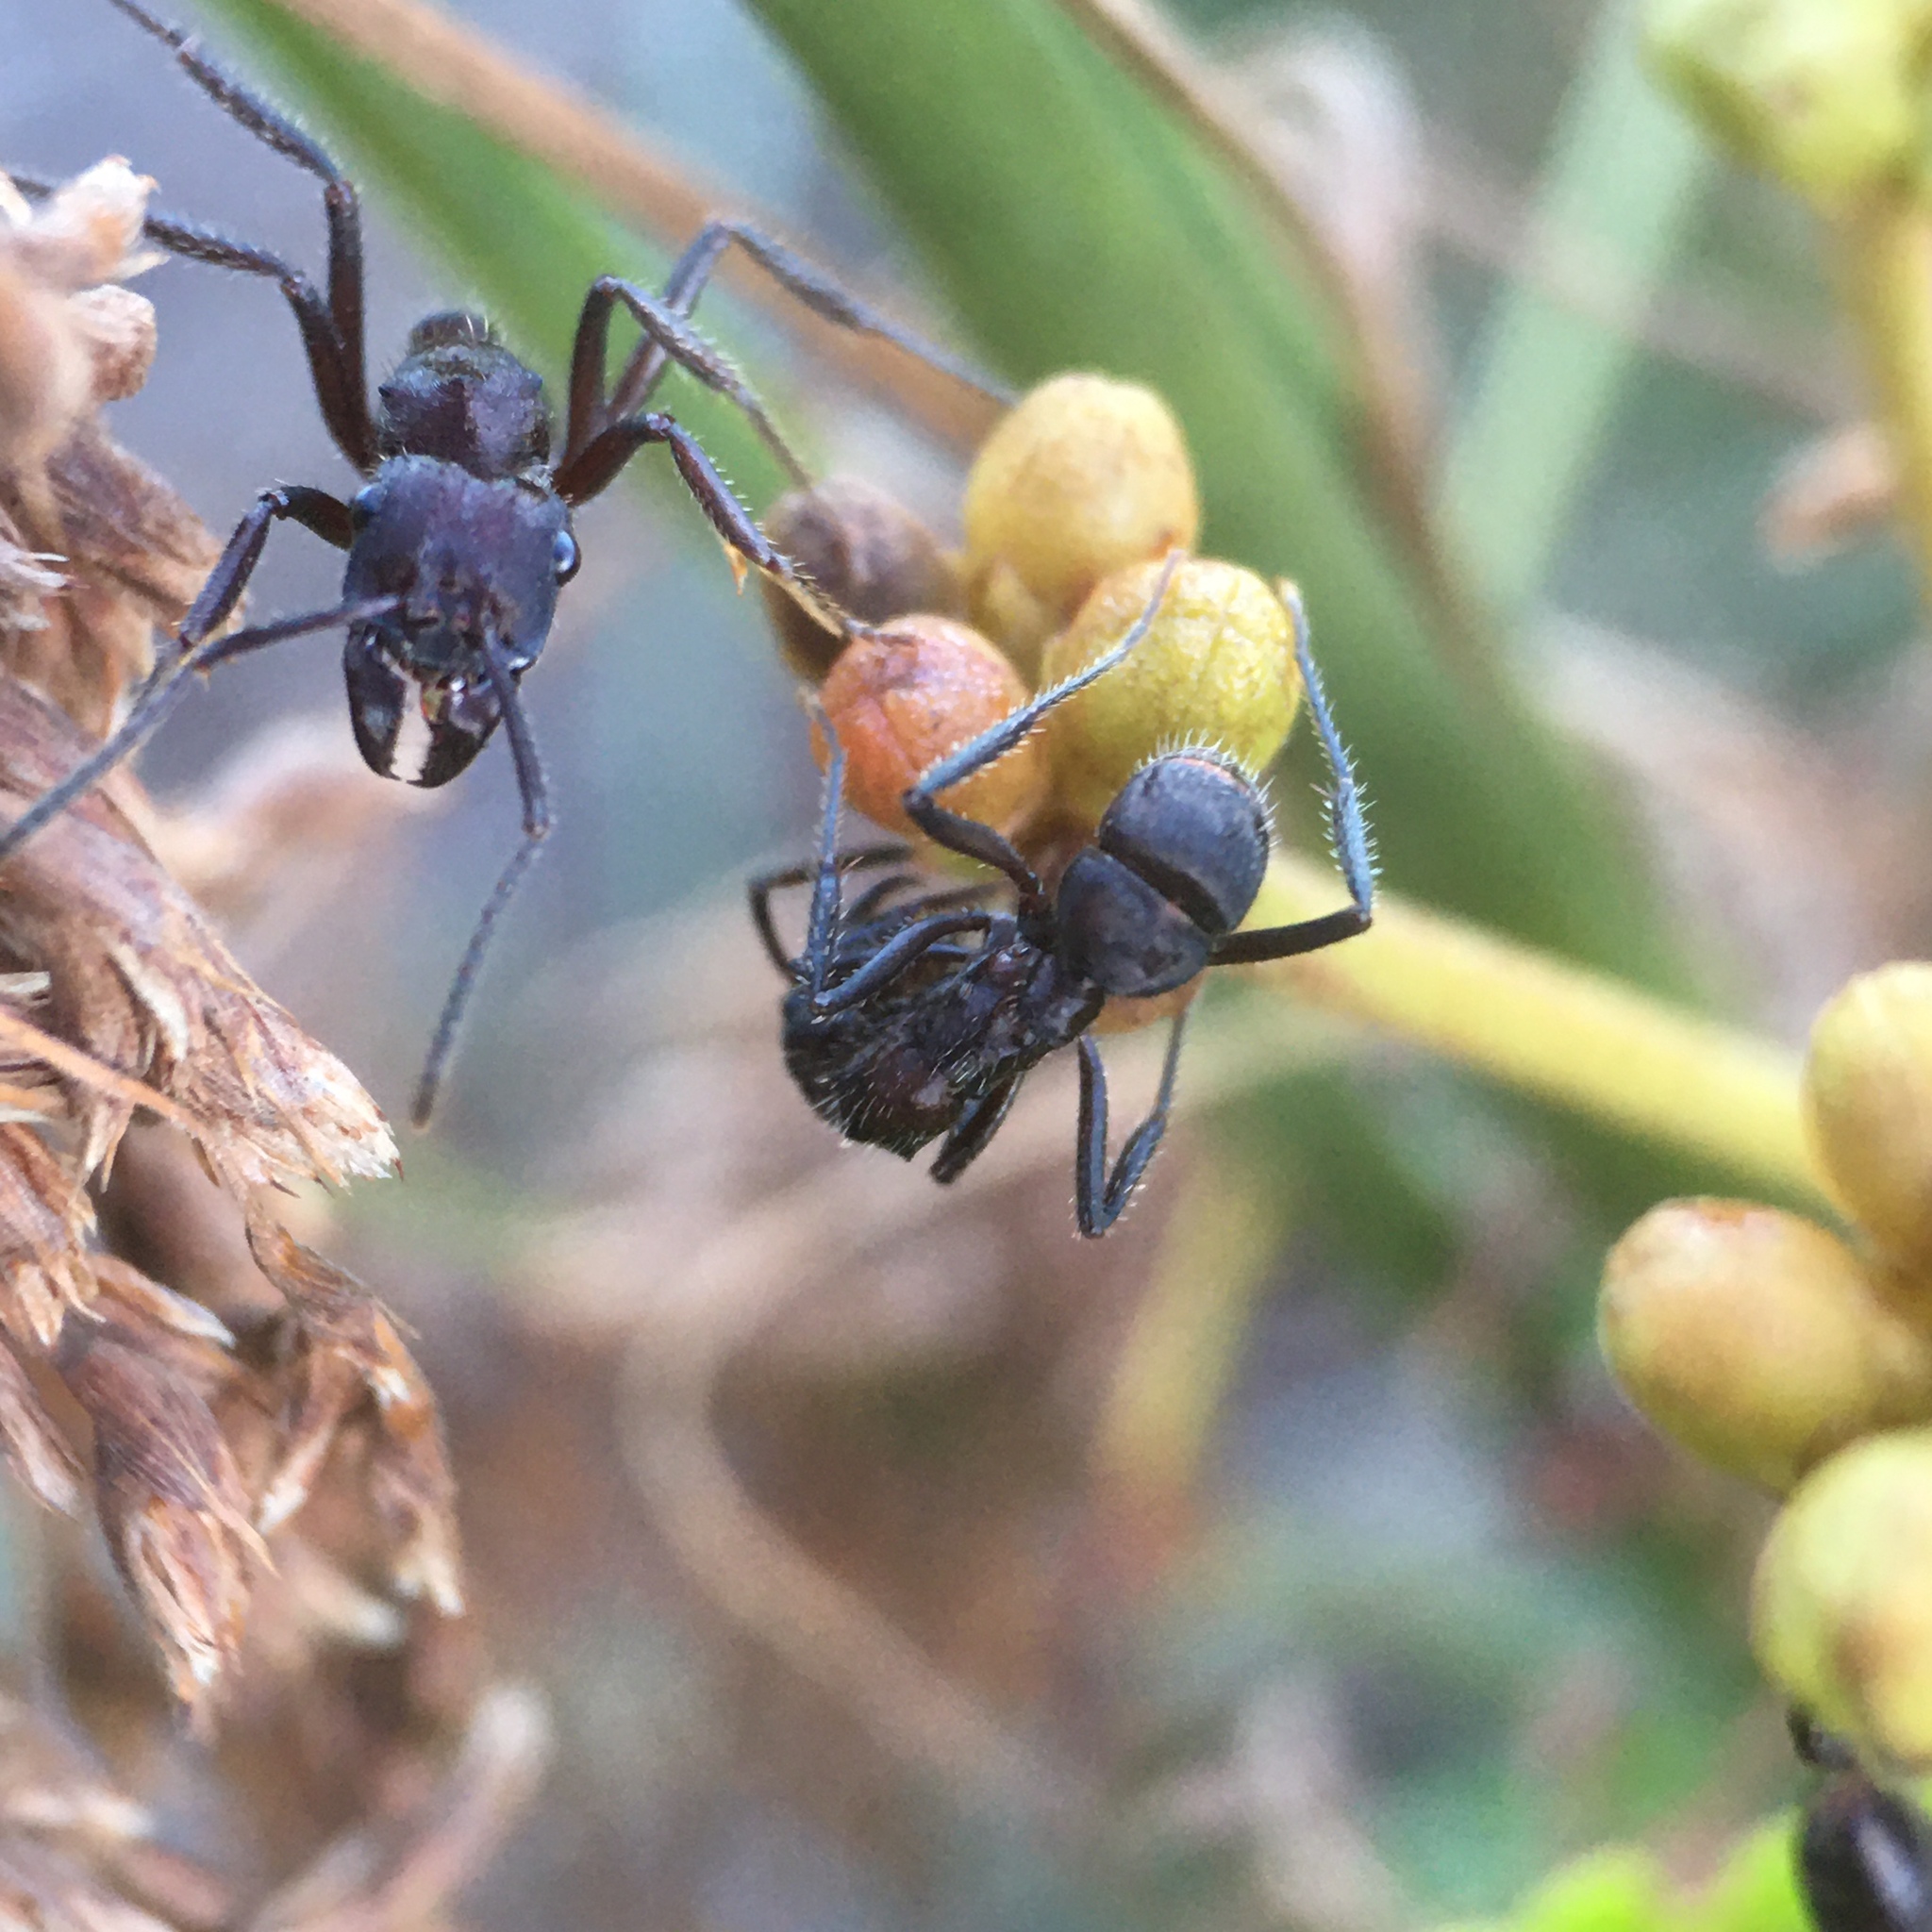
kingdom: Animalia
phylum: Arthropoda
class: Insecta
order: Hymenoptera
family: Formicidae
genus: Ectatomma
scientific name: Ectatomma brunneum
